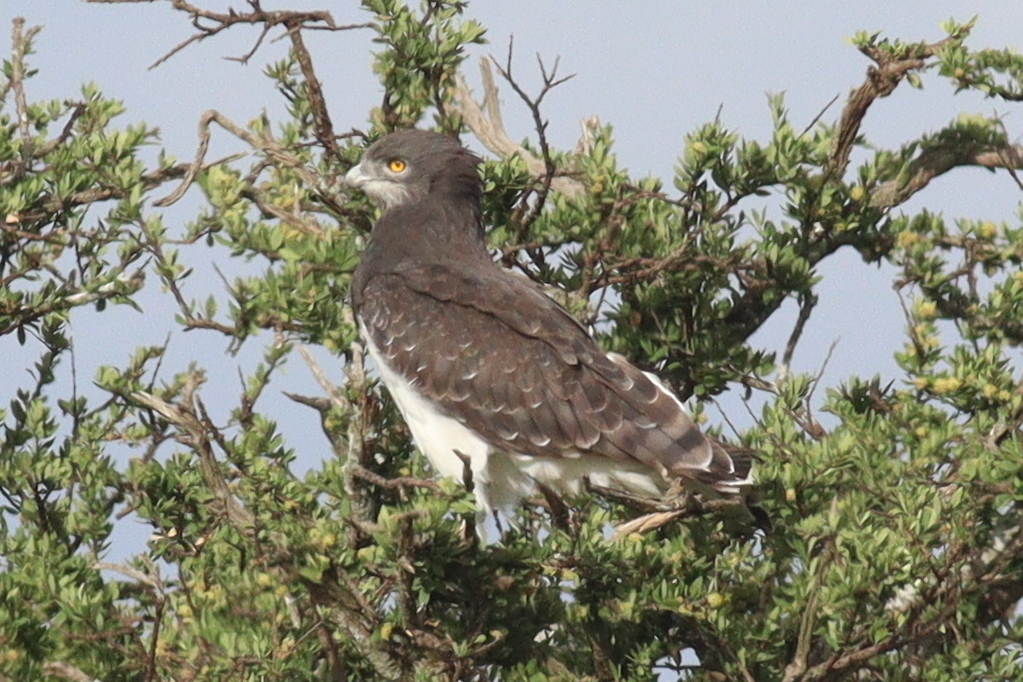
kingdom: Animalia
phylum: Chordata
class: Aves
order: Accipitriformes
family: Accipitridae
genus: Circaetus
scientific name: Circaetus pectoralis
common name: Black-chested snake eagle
